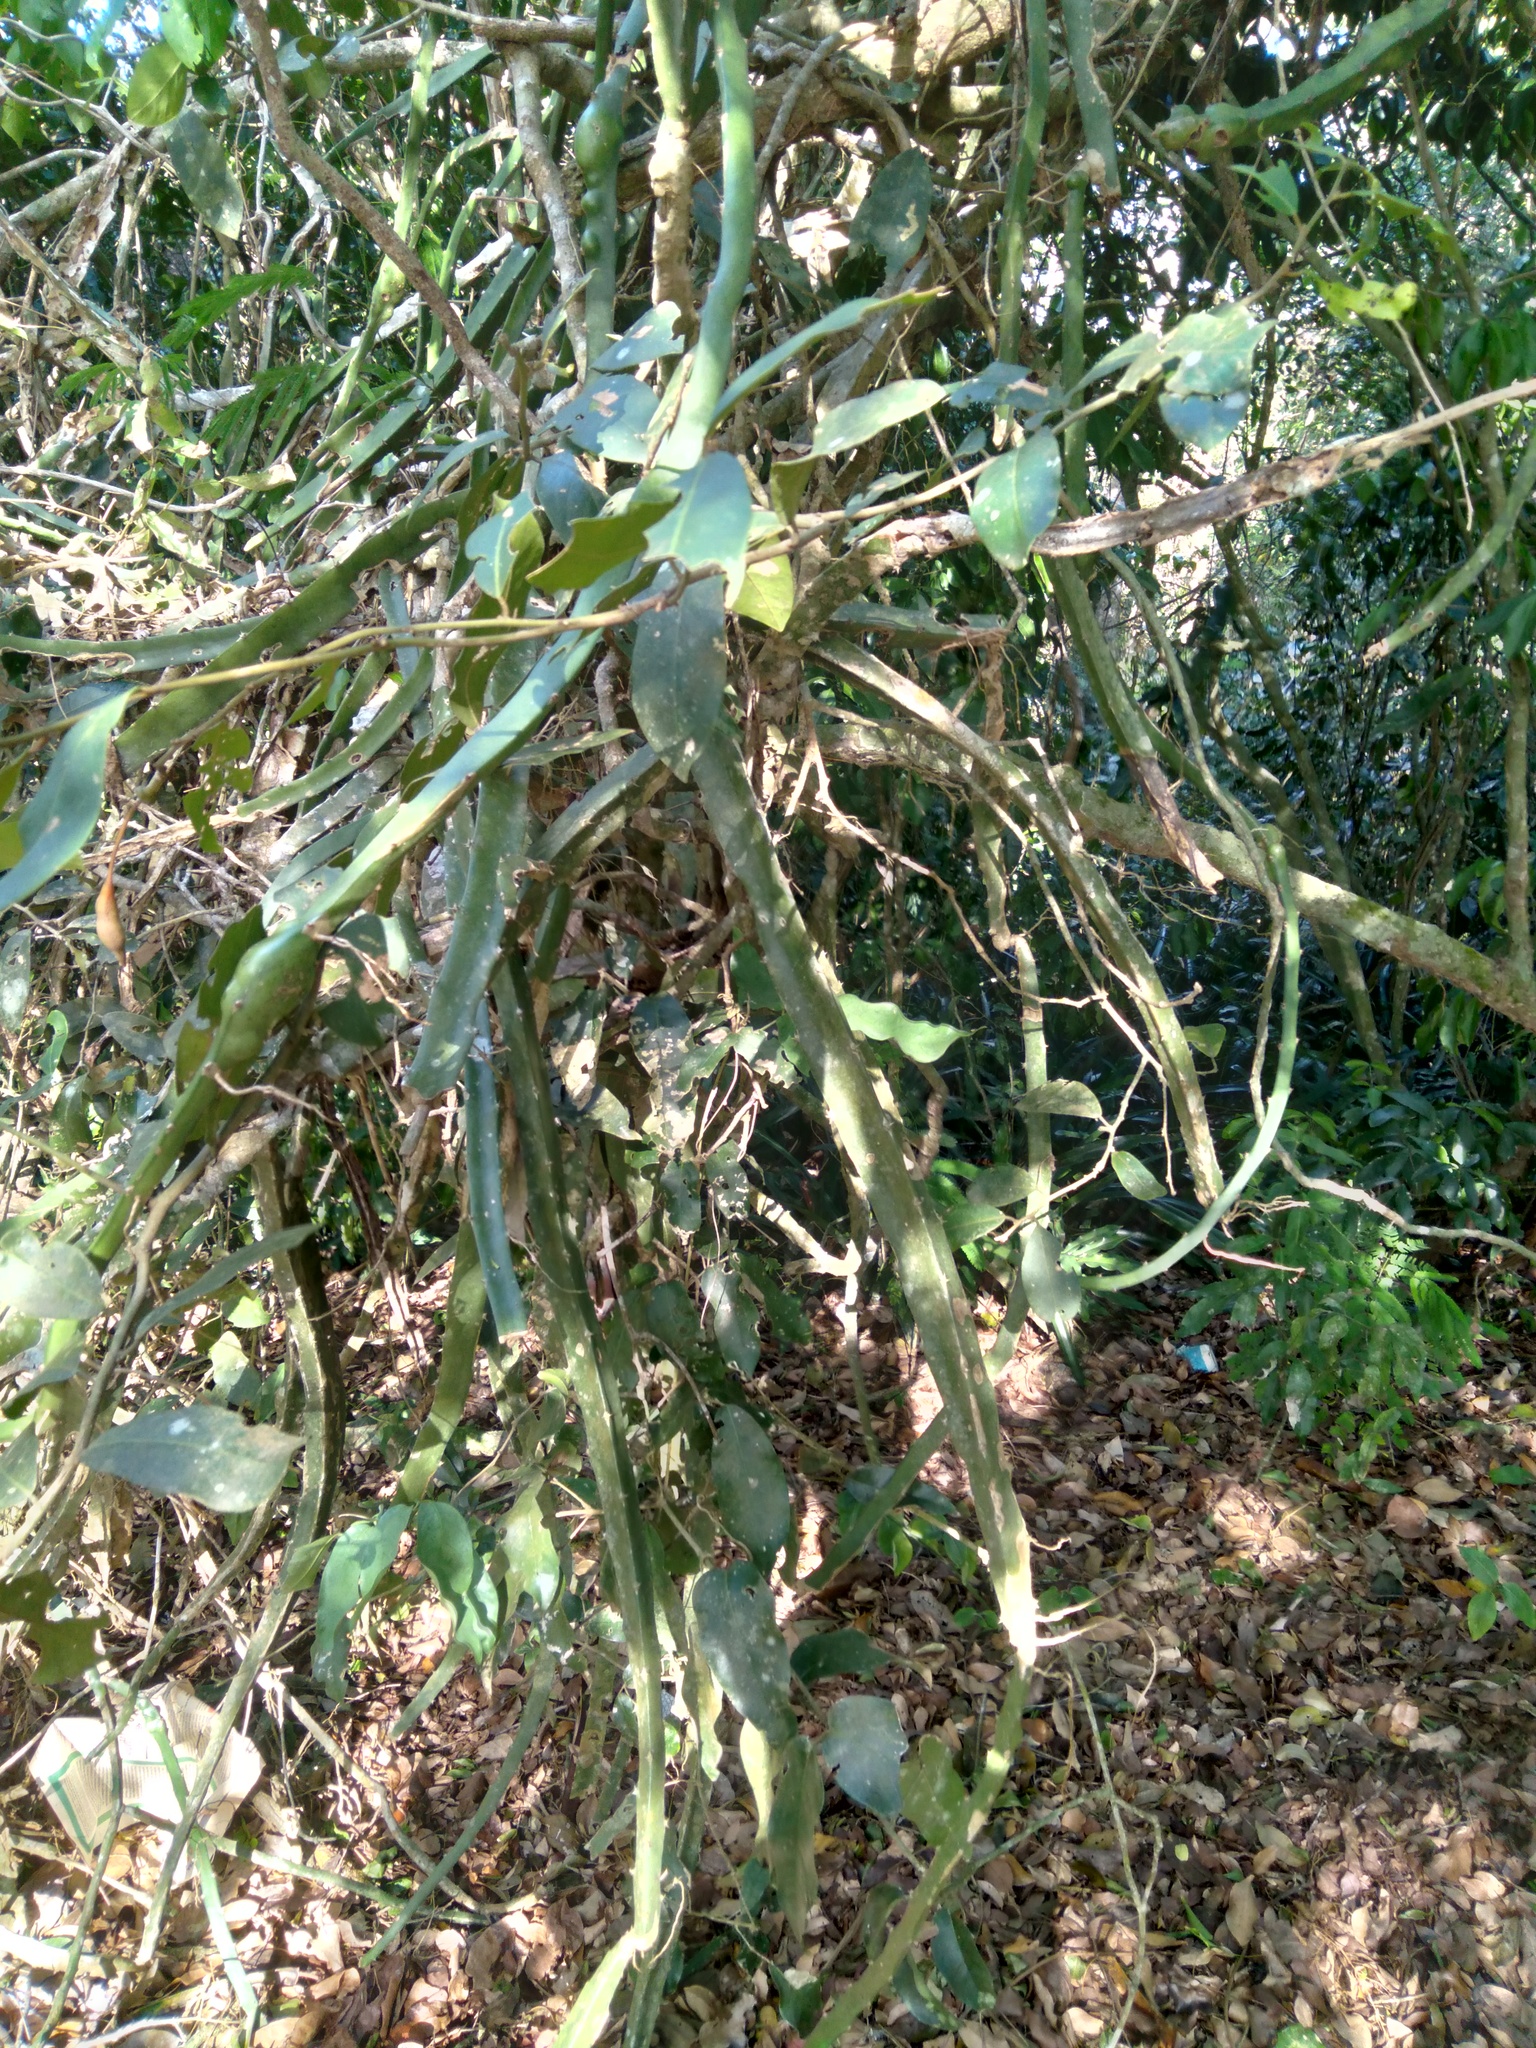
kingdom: Plantae
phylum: Tracheophyta
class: Magnoliopsida
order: Caryophyllales
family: Cactaceae
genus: Selenicereus
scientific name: Selenicereus setaceus
